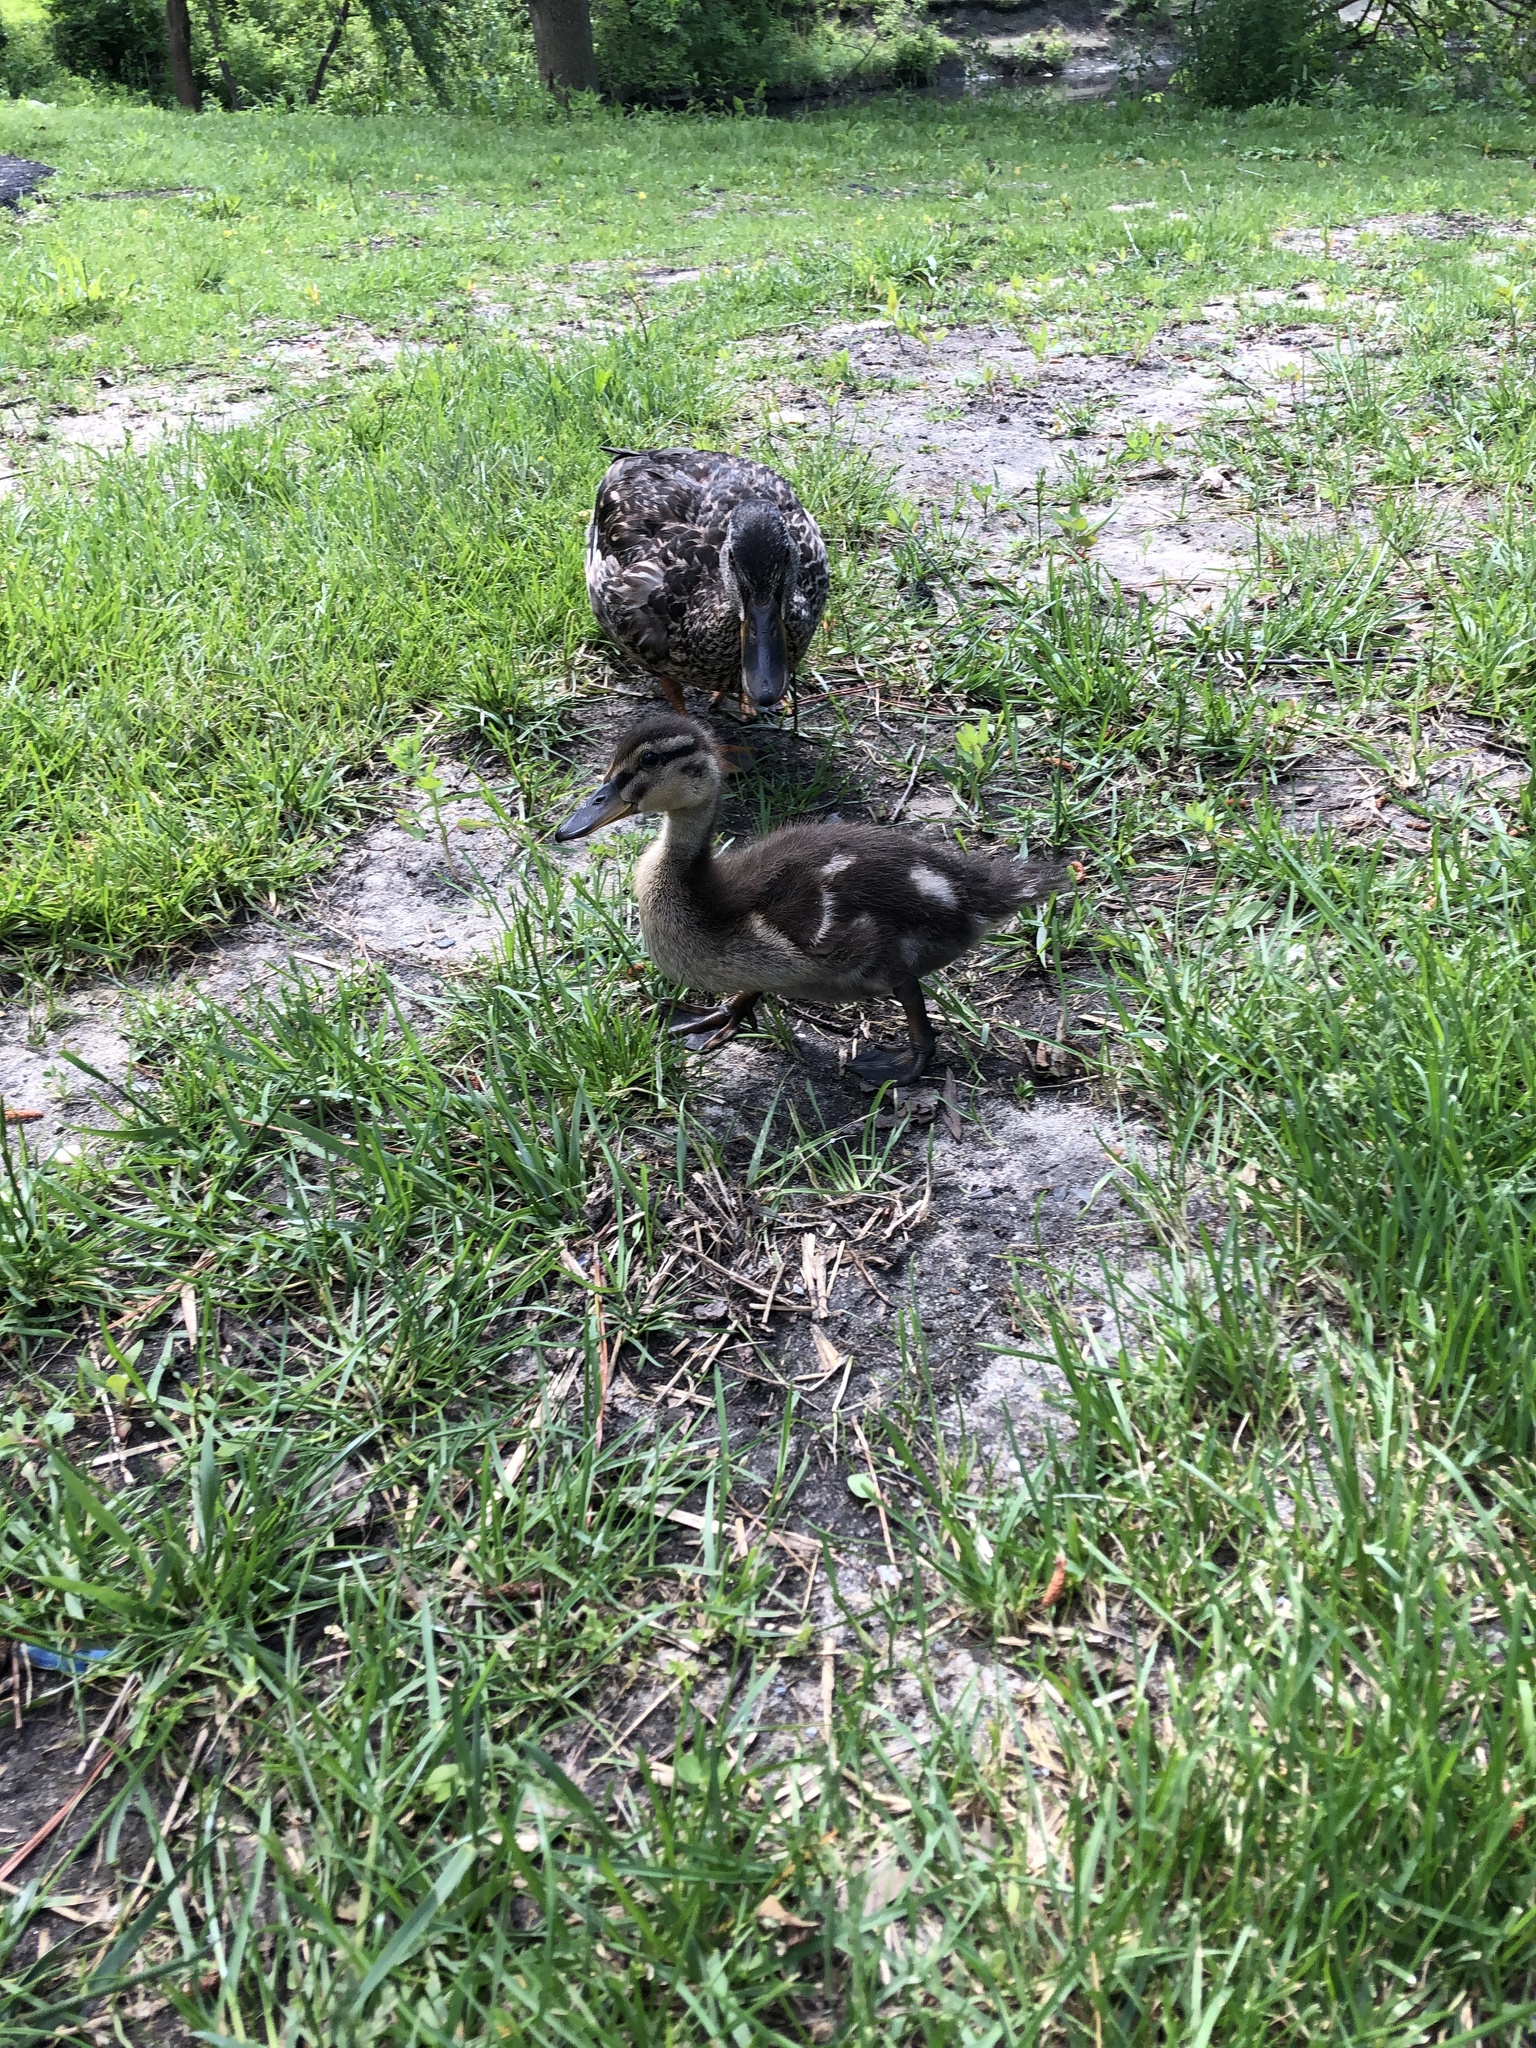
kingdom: Animalia
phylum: Chordata
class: Aves
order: Anseriformes
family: Anatidae
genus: Anas
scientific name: Anas platyrhynchos
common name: Mallard
